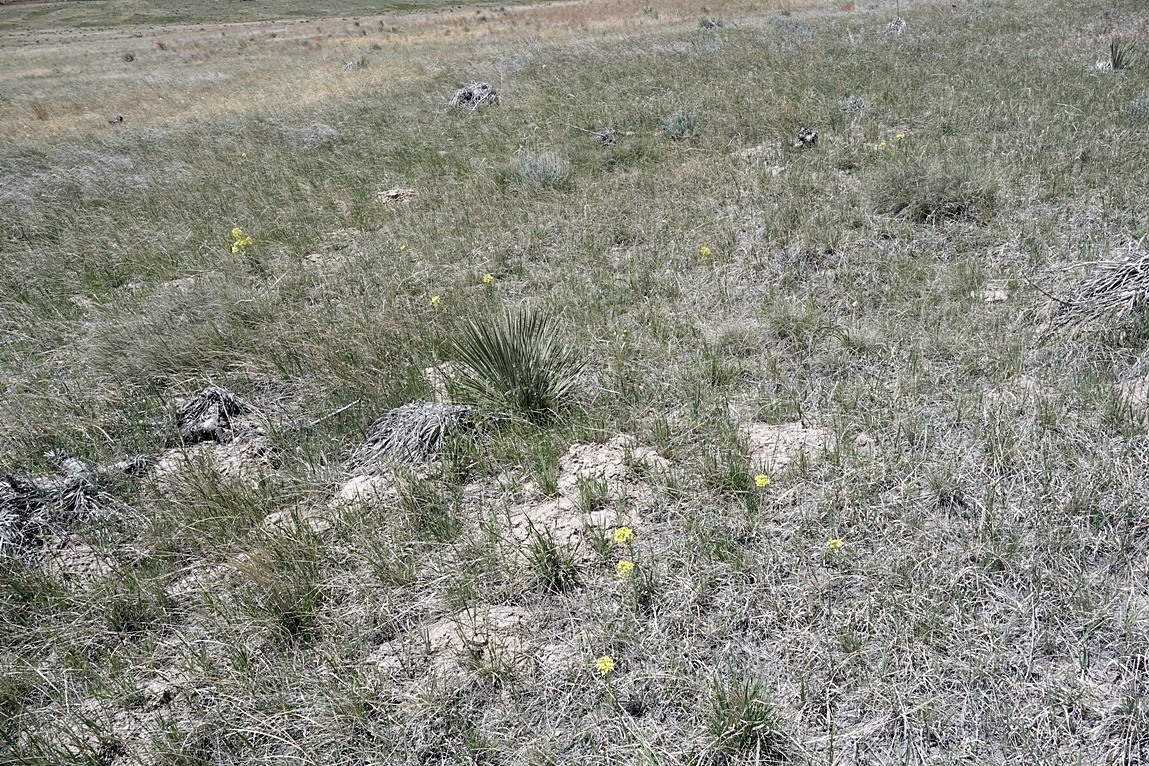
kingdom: Plantae
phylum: Tracheophyta
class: Magnoliopsida
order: Brassicales
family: Brassicaceae
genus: Erysimum
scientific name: Erysimum asperum
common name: Western wallflower
